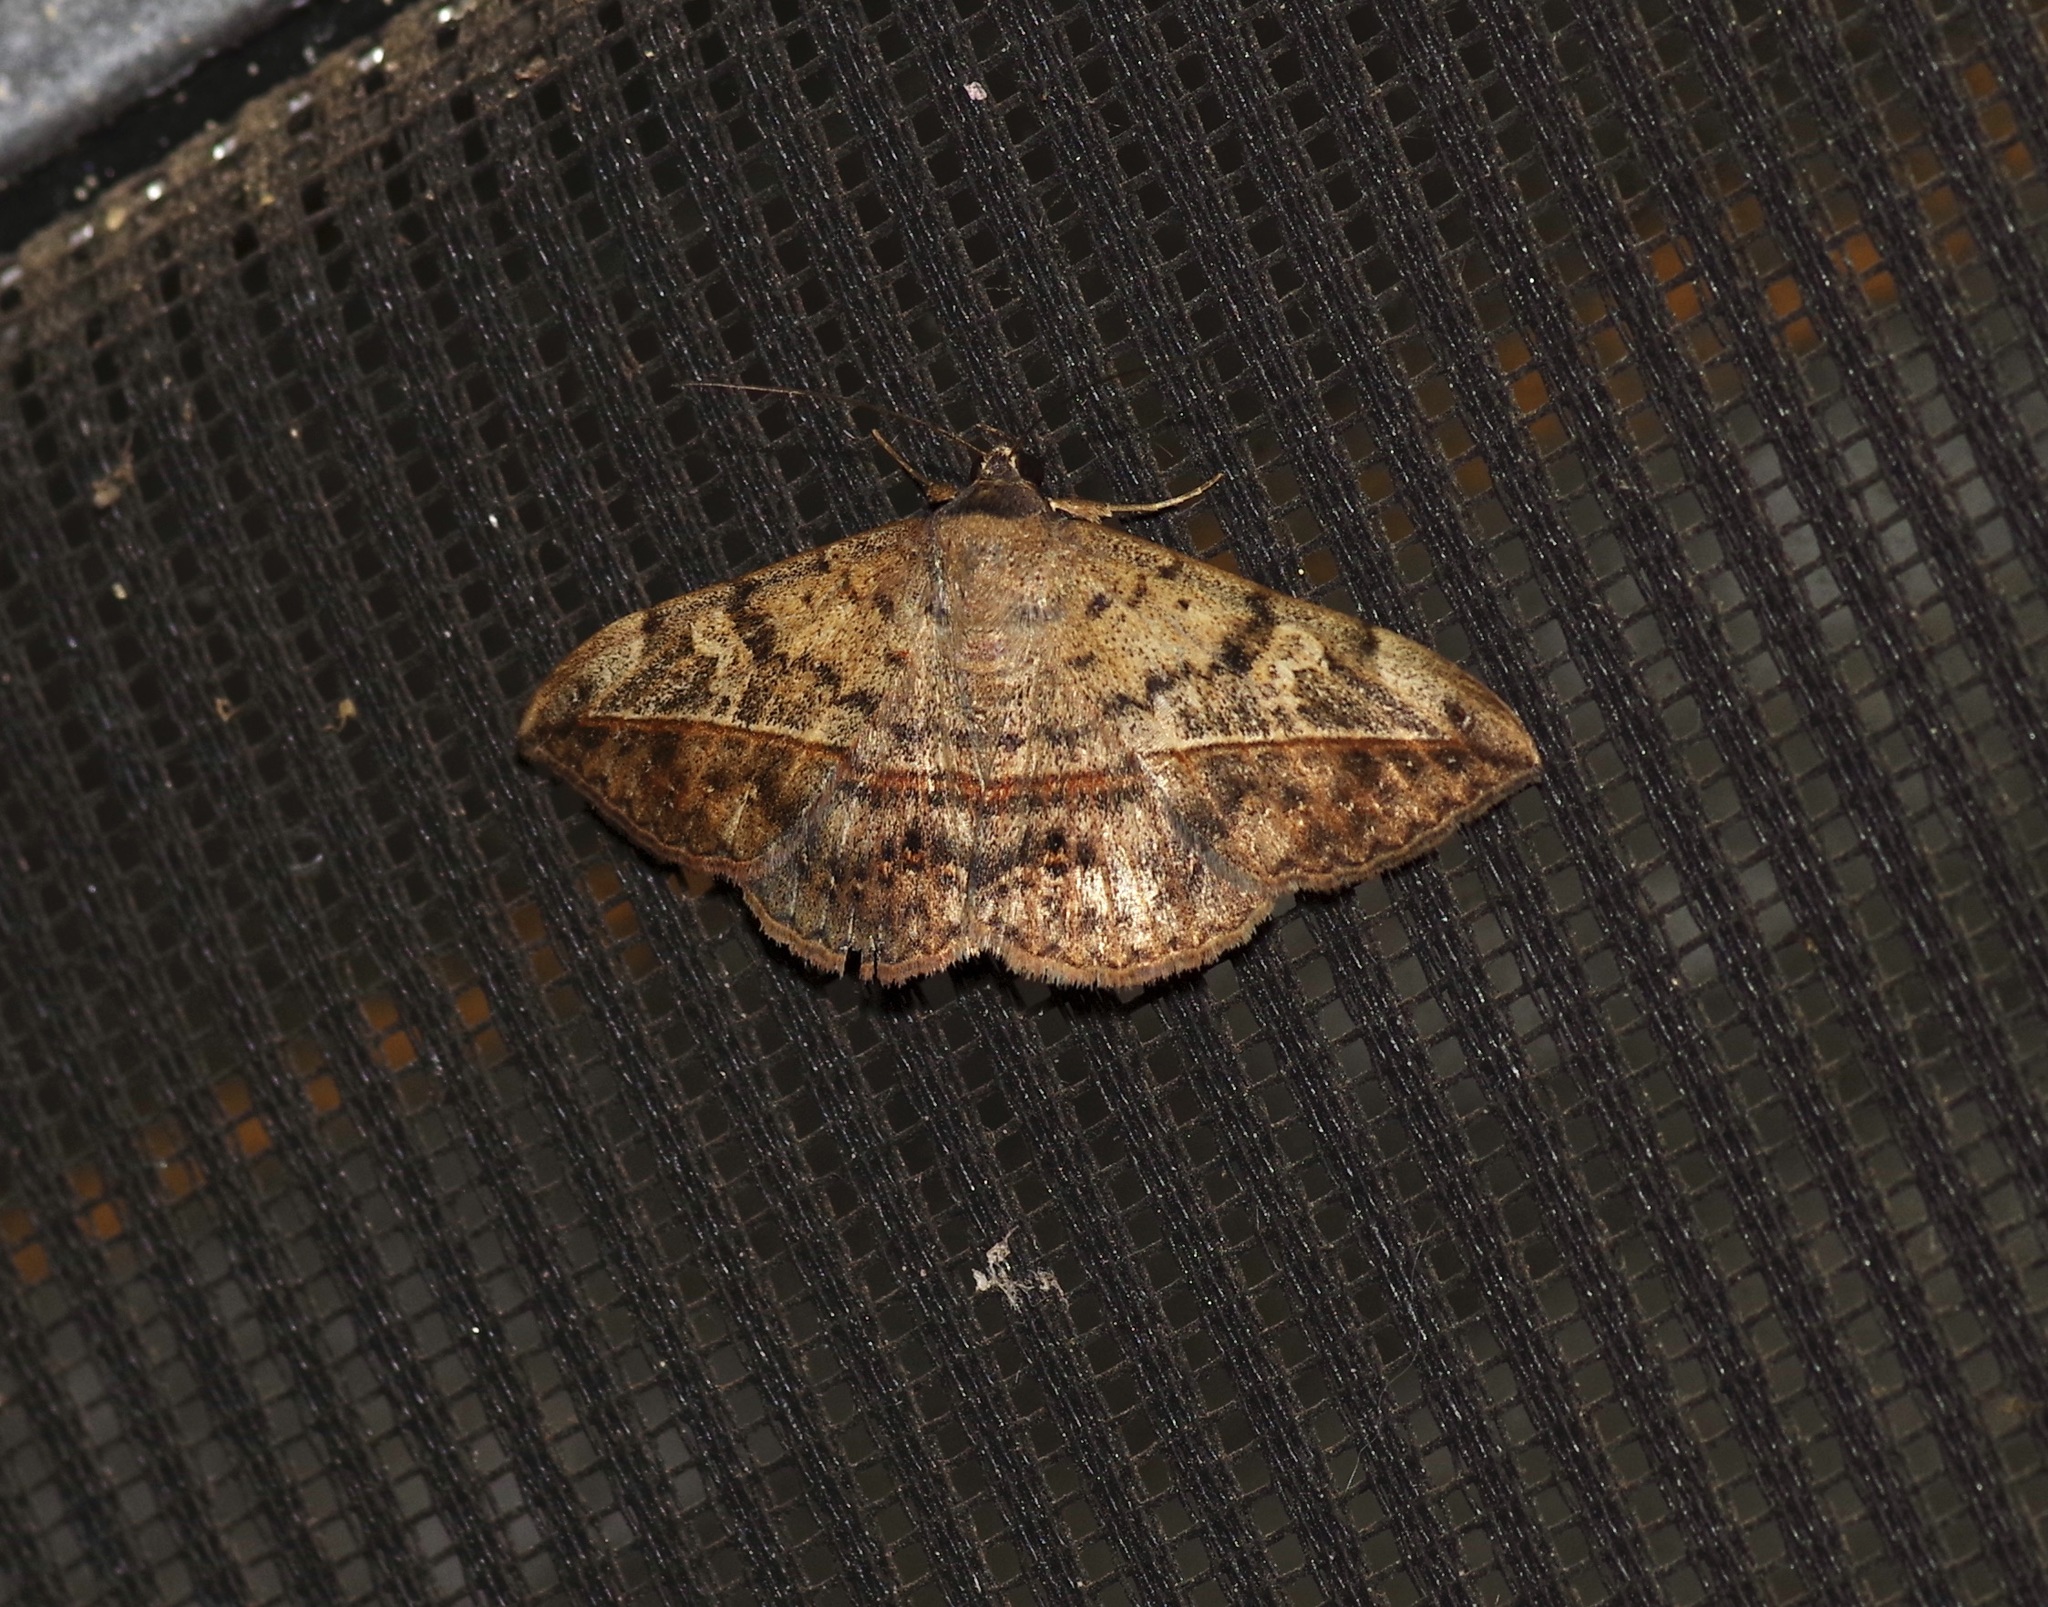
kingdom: Animalia
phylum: Arthropoda
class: Insecta
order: Lepidoptera
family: Erebidae
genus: Anticarsia
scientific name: Anticarsia gemmatalis
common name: Cutworm moth
